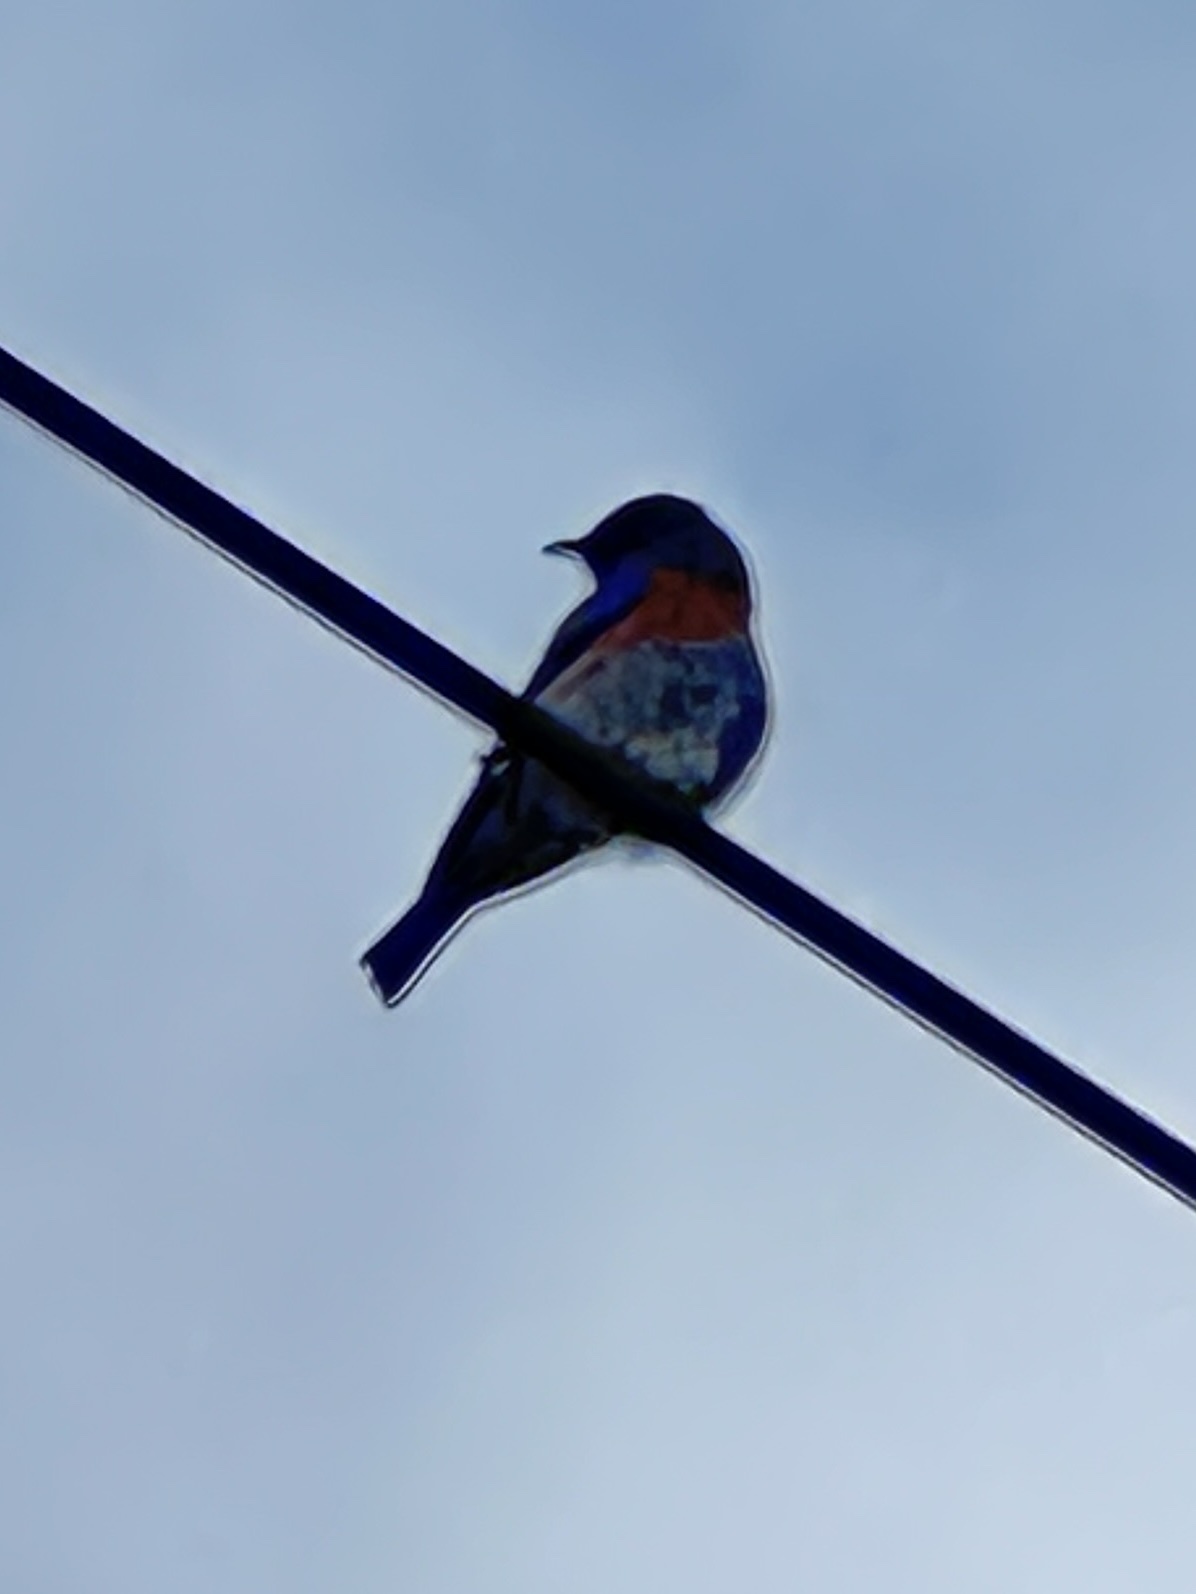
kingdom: Animalia
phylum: Chordata
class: Aves
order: Passeriformes
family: Turdidae
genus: Sialia
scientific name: Sialia mexicana
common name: Western bluebird
